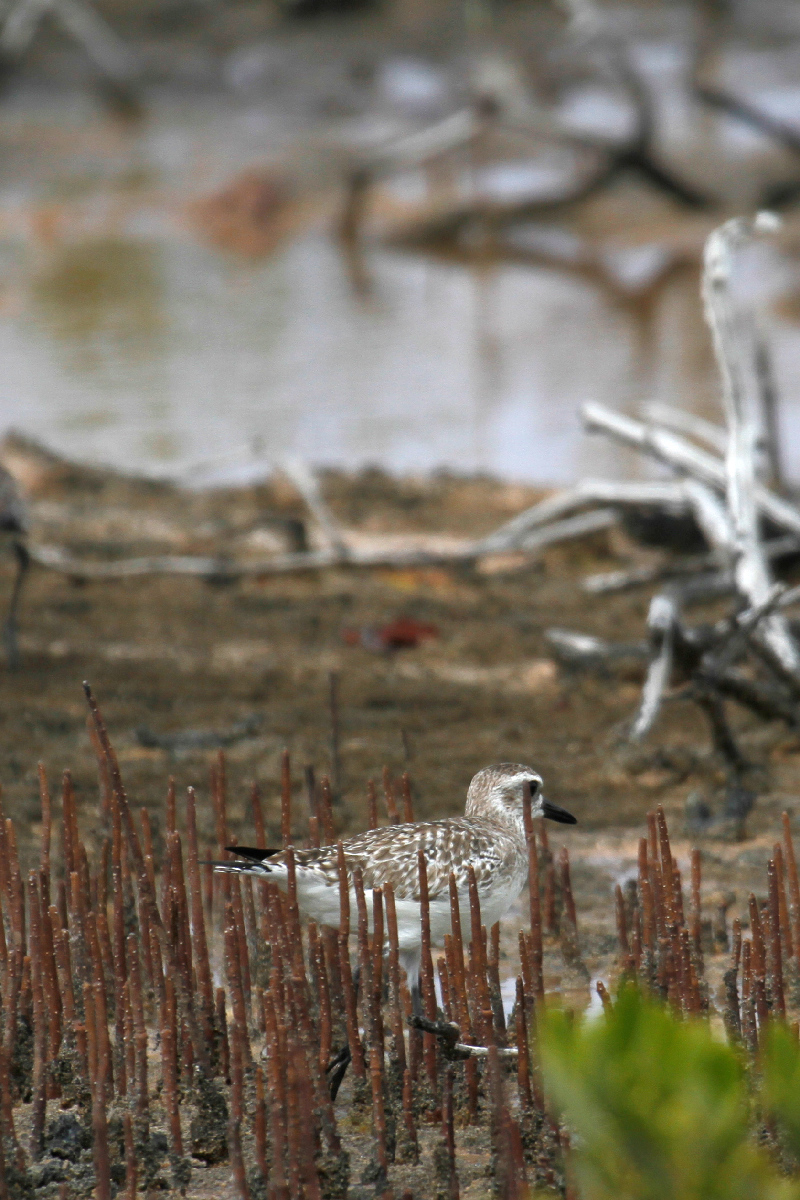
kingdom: Animalia
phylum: Chordata
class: Aves
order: Charadriiformes
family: Charadriidae
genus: Pluvialis
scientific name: Pluvialis squatarola
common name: Grey plover
